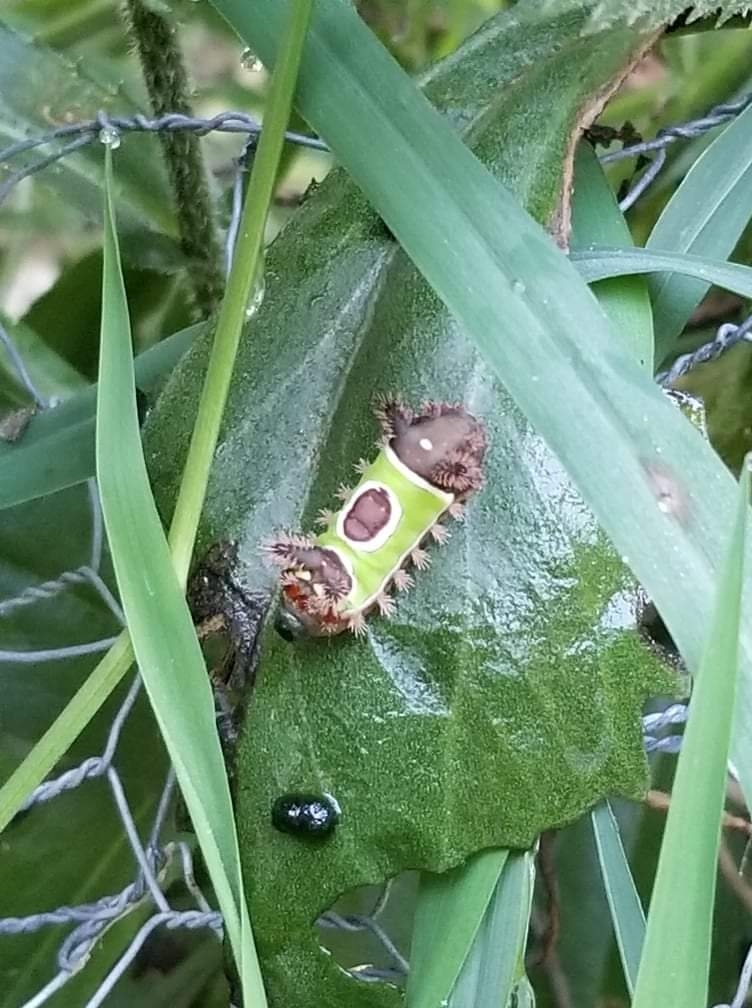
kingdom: Animalia
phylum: Arthropoda
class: Insecta
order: Lepidoptera
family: Limacodidae
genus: Acharia
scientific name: Acharia stimulea
